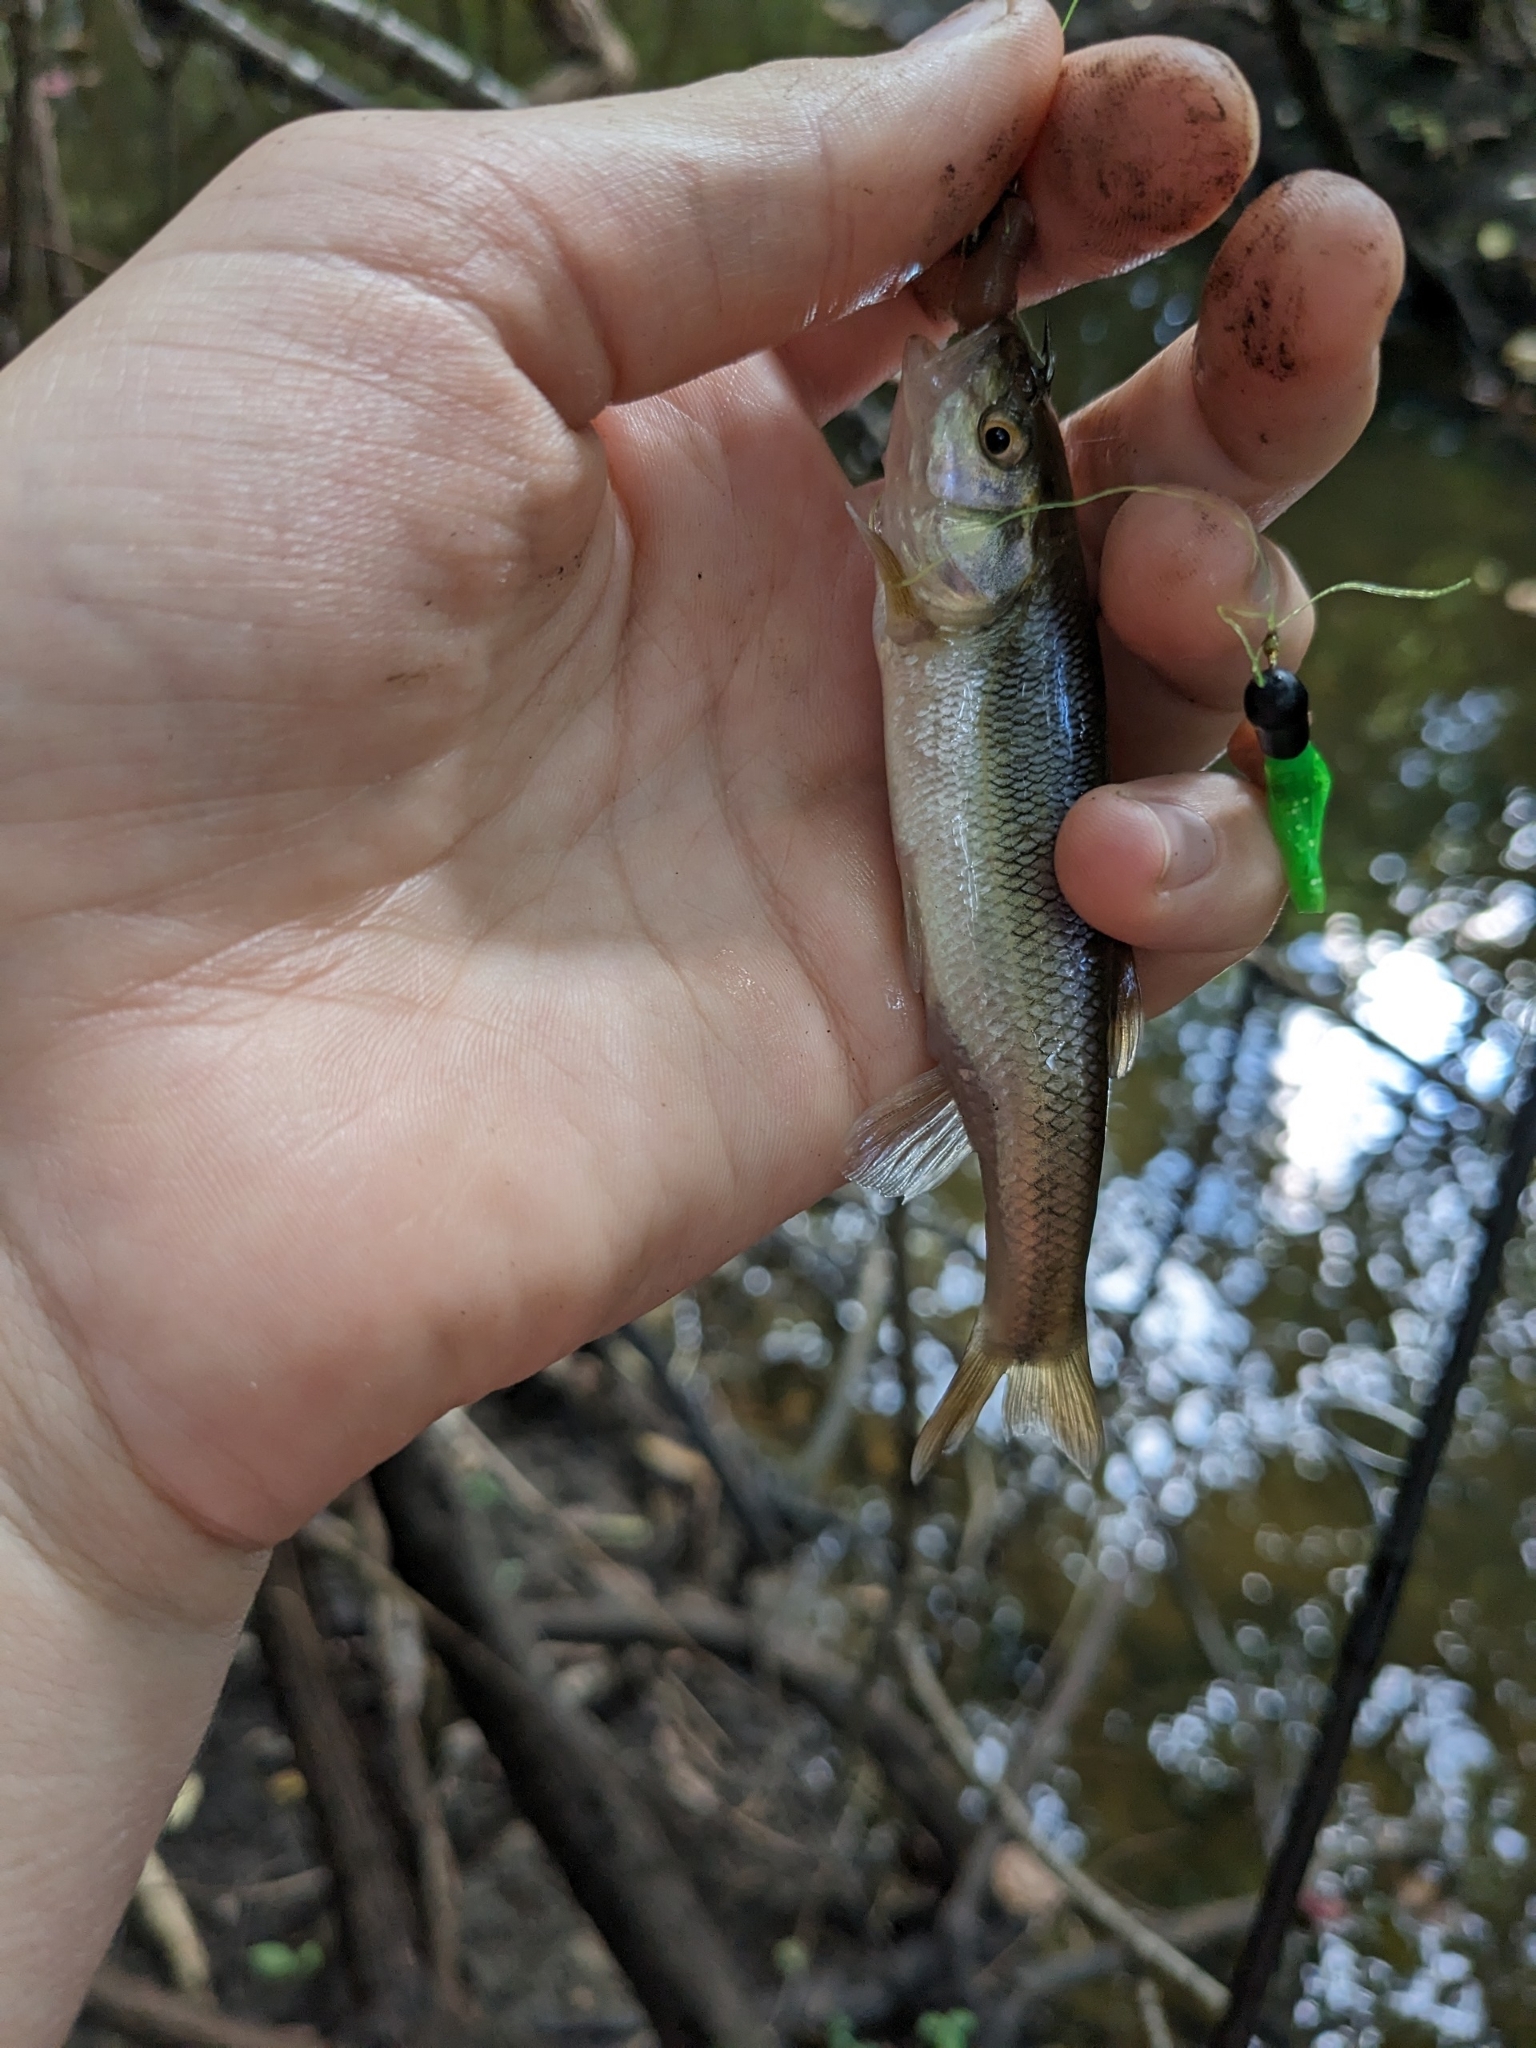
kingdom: Animalia
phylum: Chordata
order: Cypriniformes
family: Cyprinidae
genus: Semotilus
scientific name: Semotilus atromaculatus
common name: Creek chub
